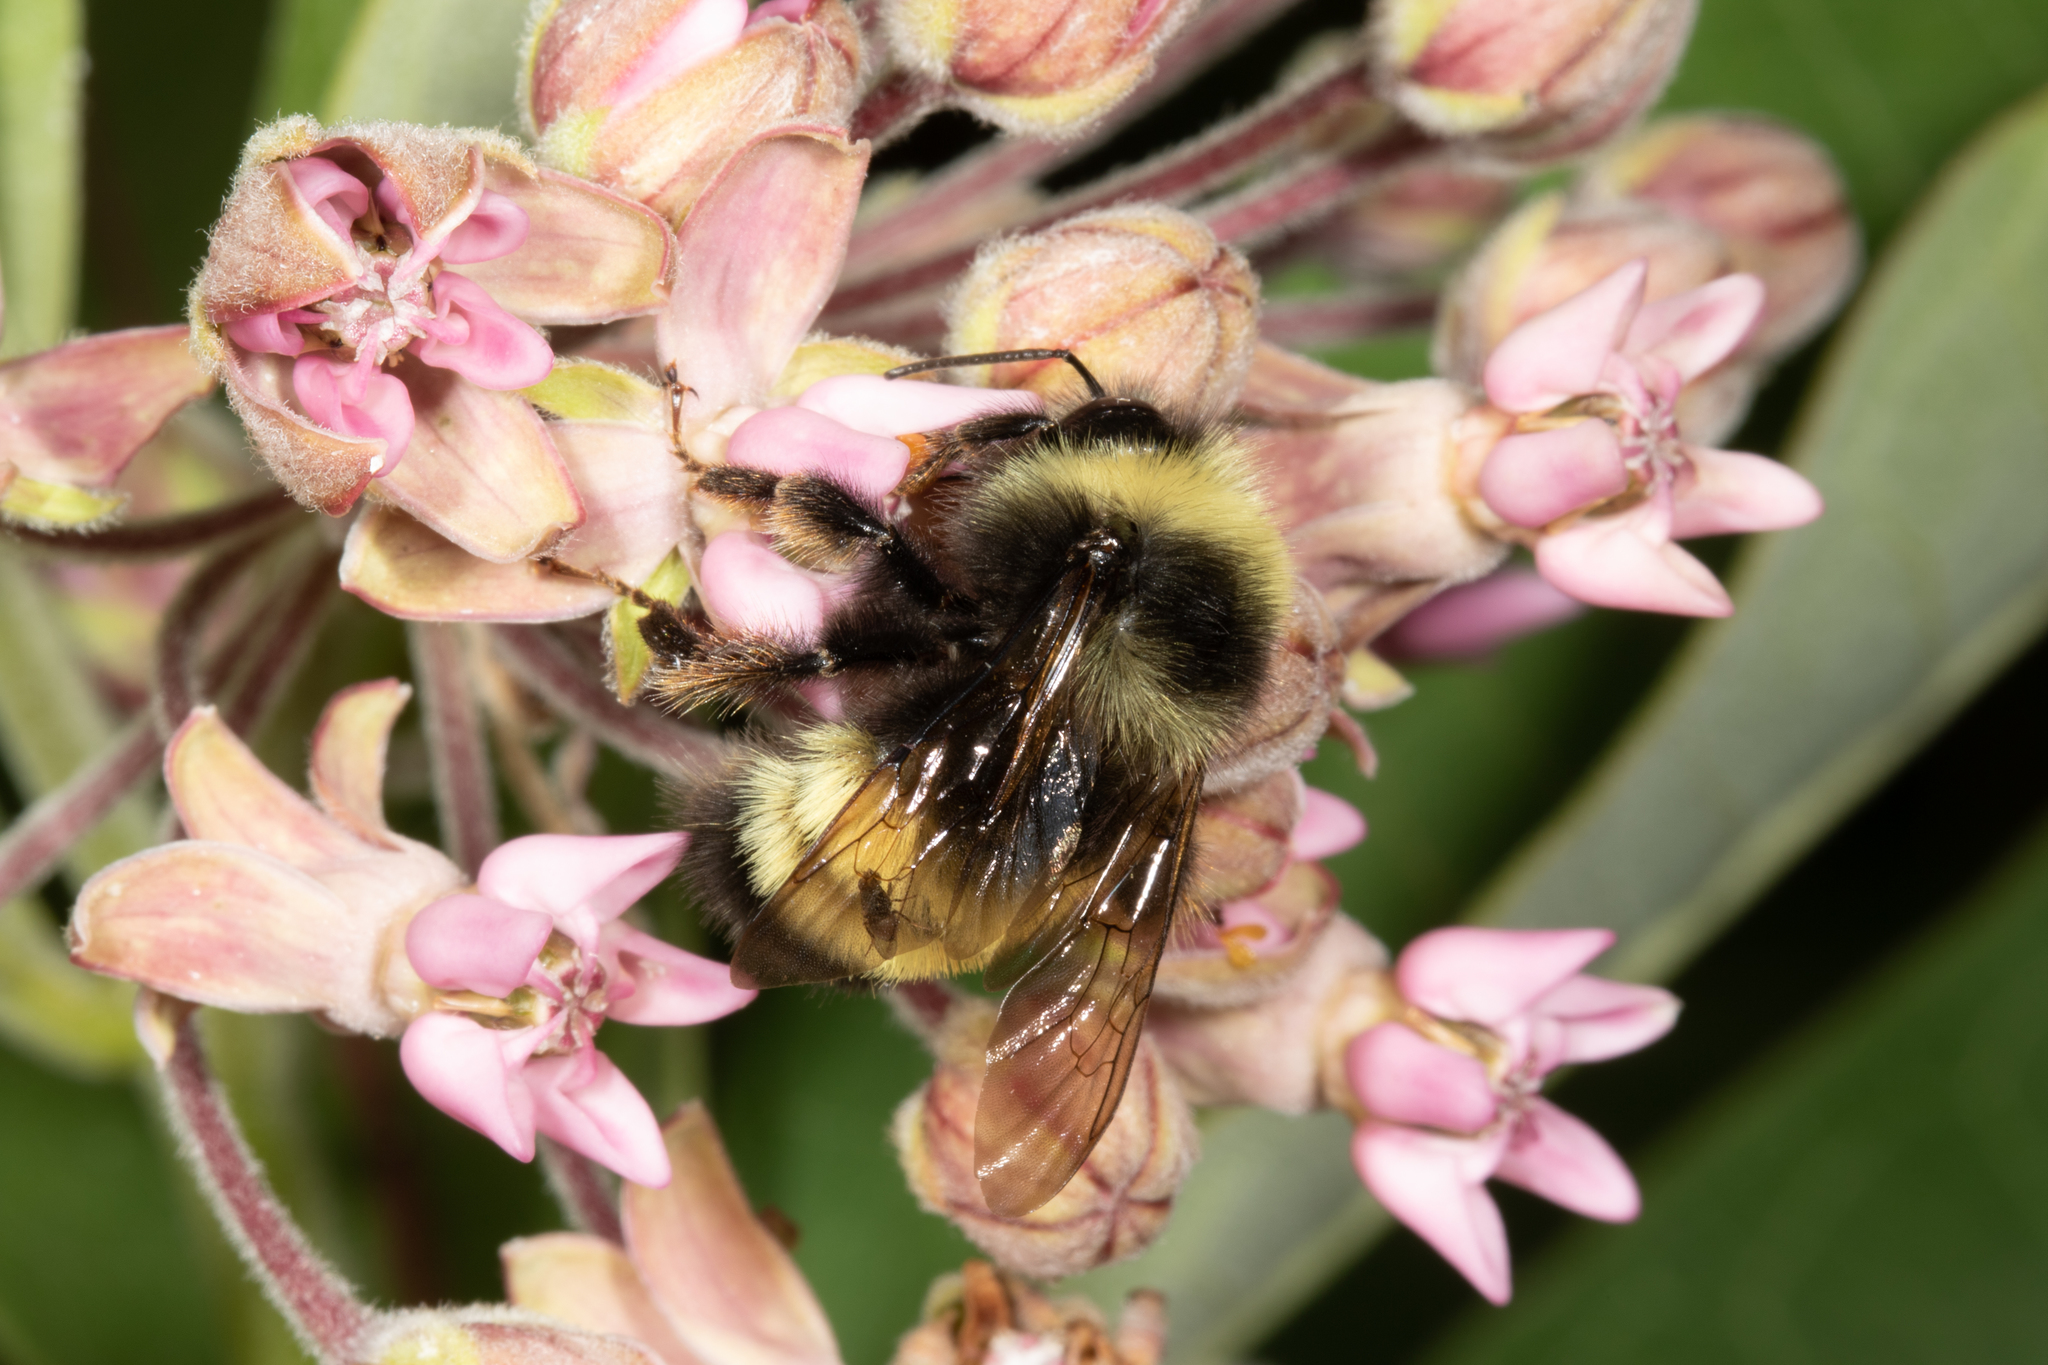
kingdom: Animalia
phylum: Arthropoda
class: Insecta
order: Hymenoptera
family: Apidae
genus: Bombus
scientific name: Bombus terricola
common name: Yellow-banded bumble bee
